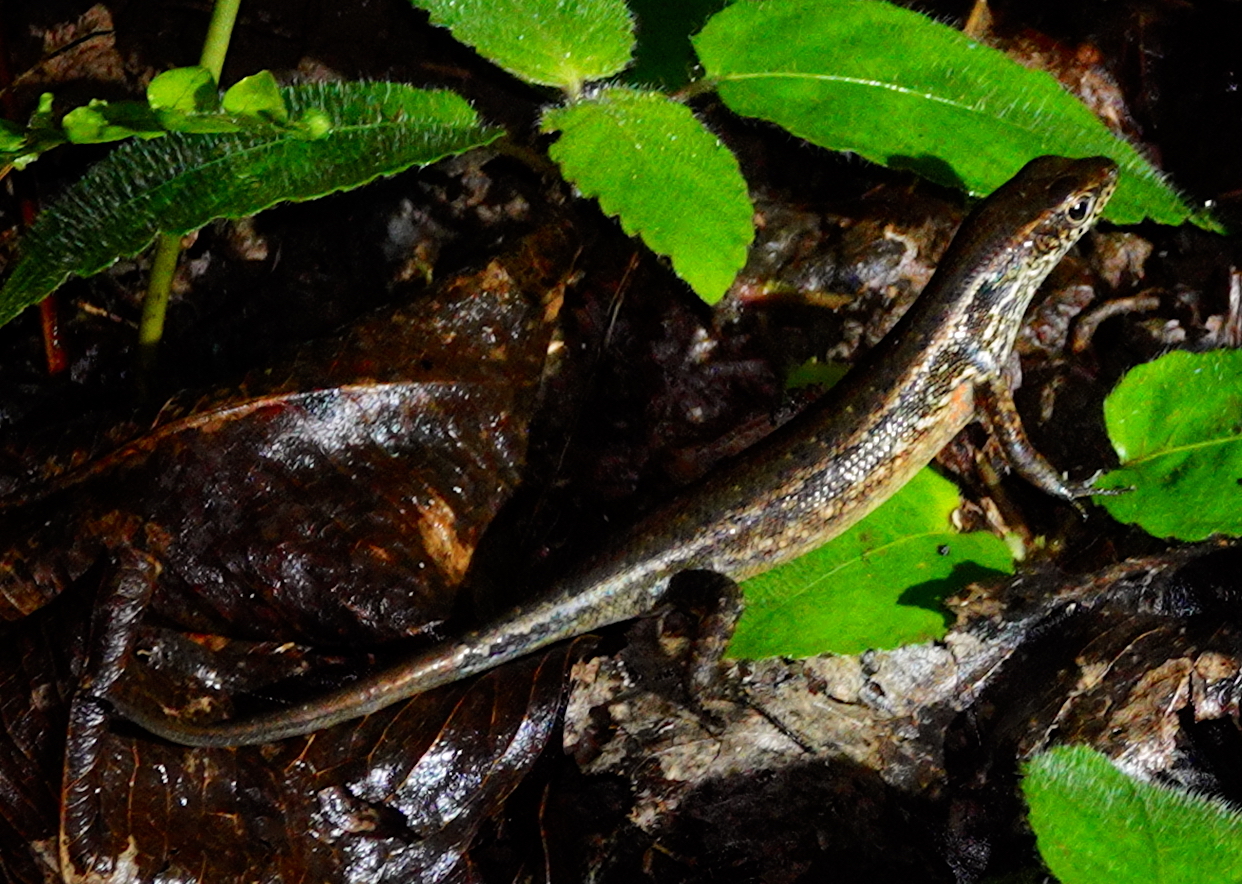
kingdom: Animalia
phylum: Chordata
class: Squamata
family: Scincidae
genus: Carlia
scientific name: Carlia beccarii
